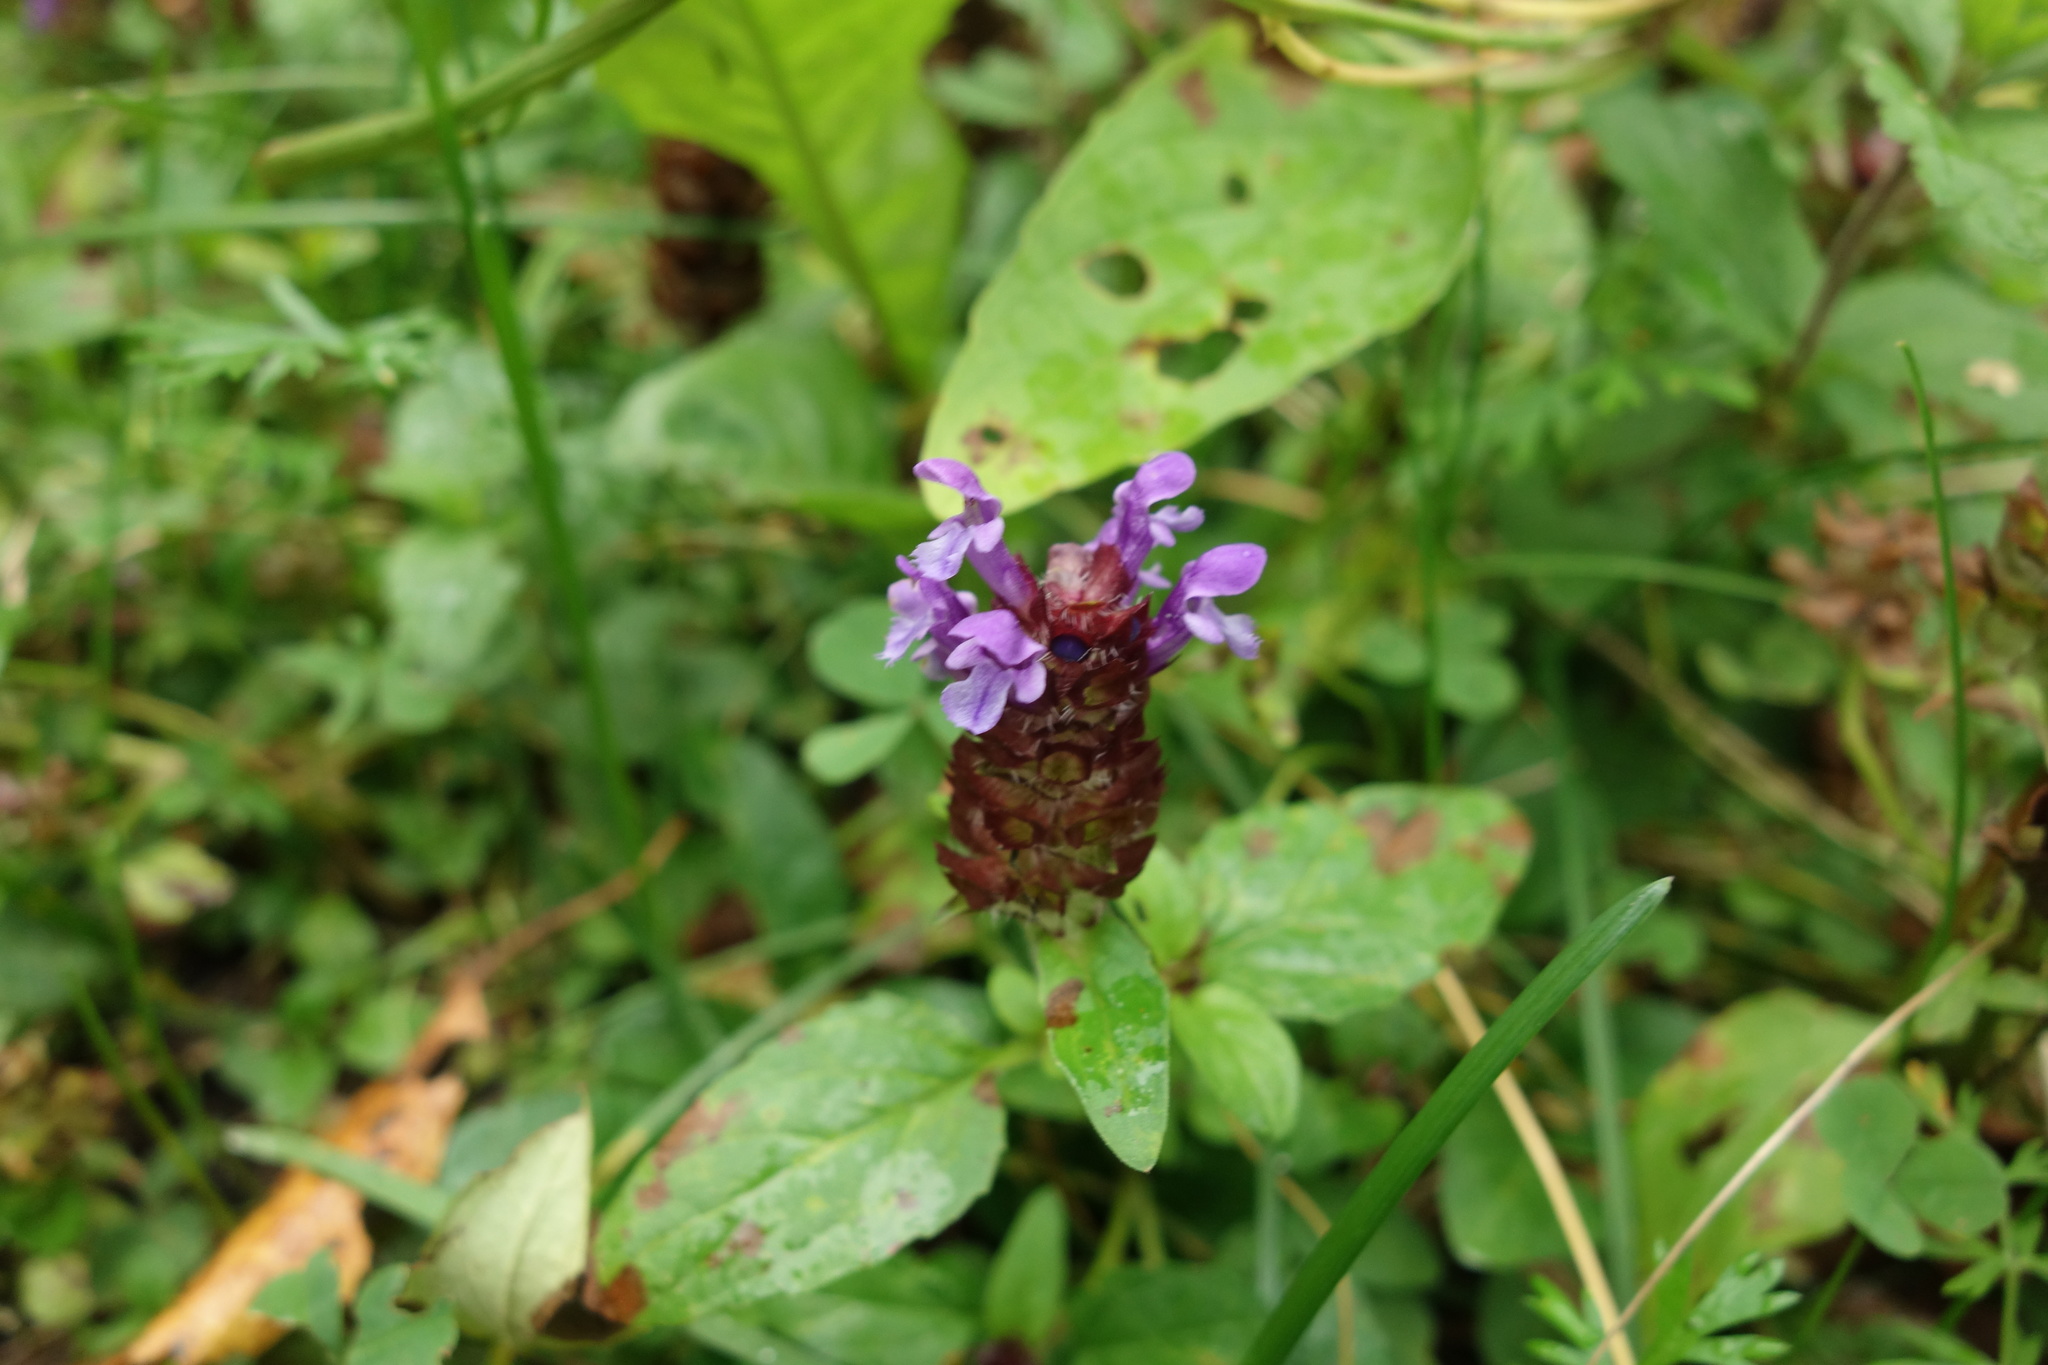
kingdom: Plantae
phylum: Tracheophyta
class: Magnoliopsida
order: Lamiales
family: Lamiaceae
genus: Prunella
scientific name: Prunella vulgaris
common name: Heal-all
